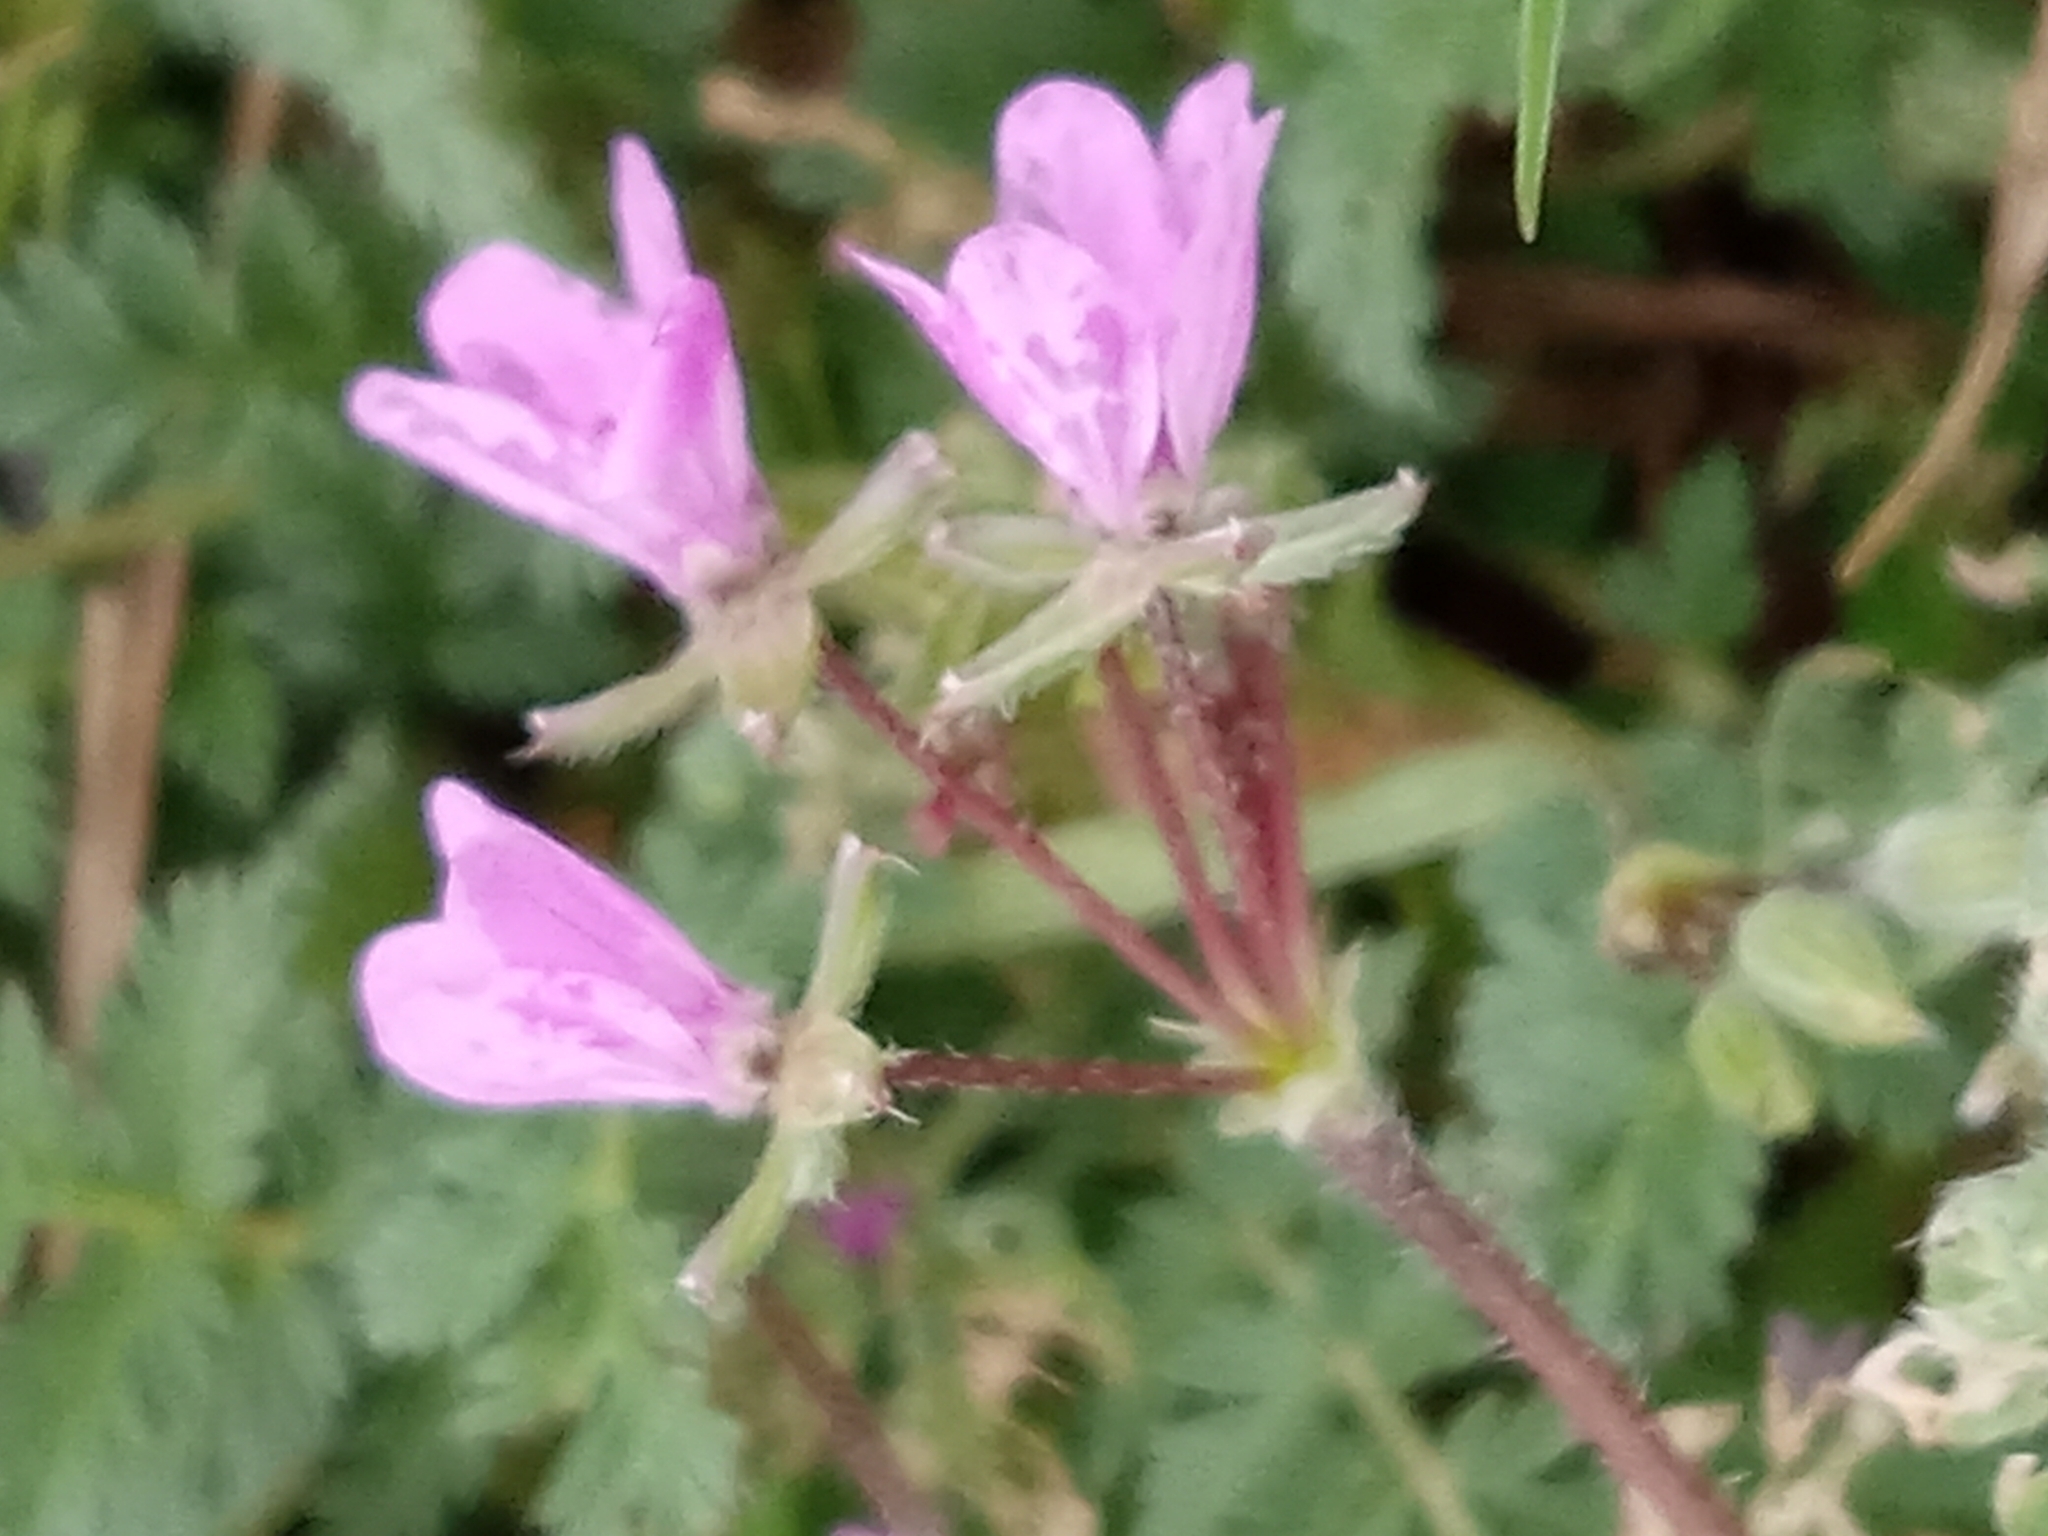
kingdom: Plantae
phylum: Tracheophyta
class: Magnoliopsida
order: Geraniales
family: Geraniaceae
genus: Erodium
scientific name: Erodium cicutarium
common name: Common stork's-bill
